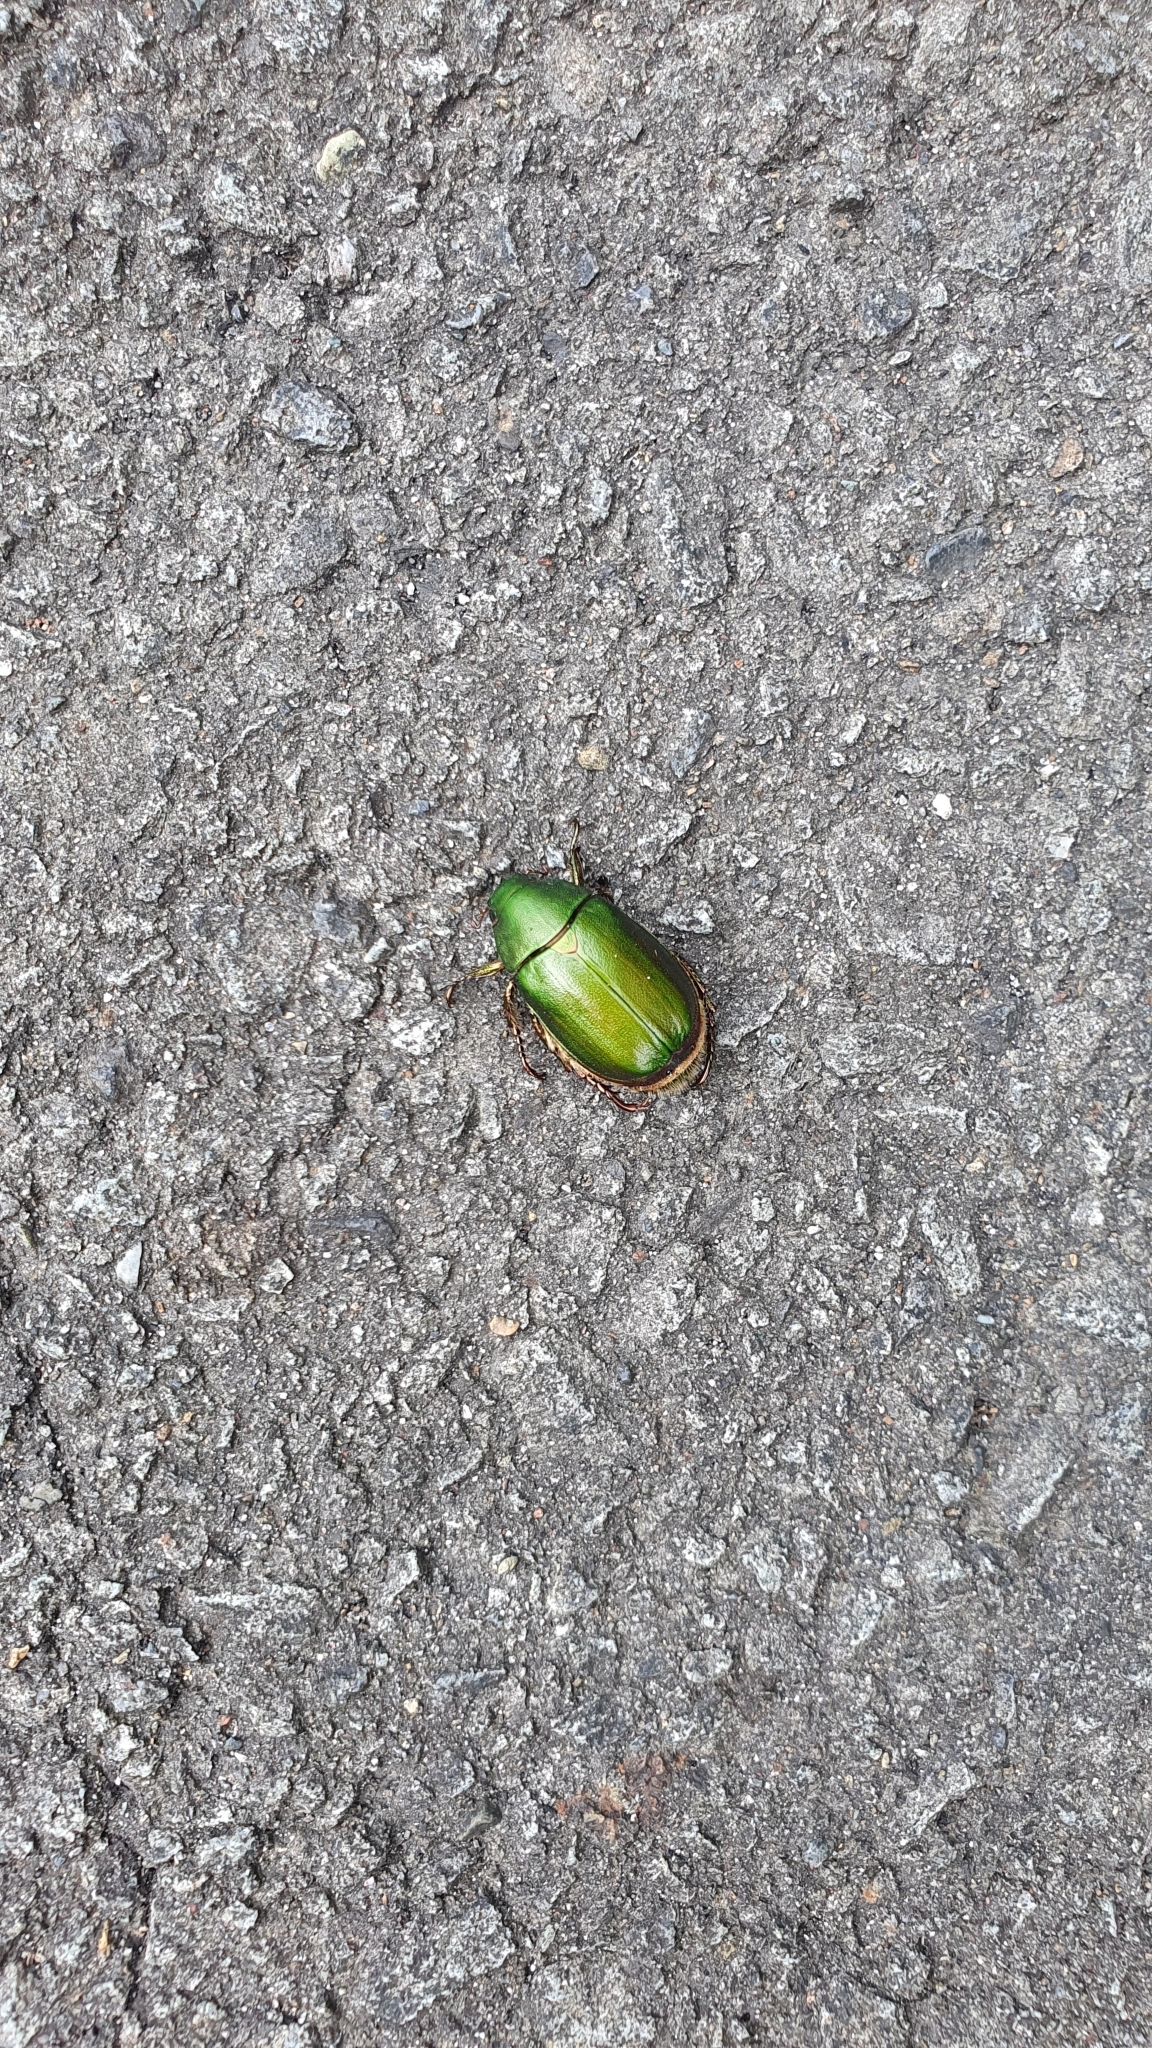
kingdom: Animalia
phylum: Arthropoda
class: Insecta
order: Coleoptera
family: Scarabaeidae
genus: Anomala
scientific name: Anomala albopilosa
